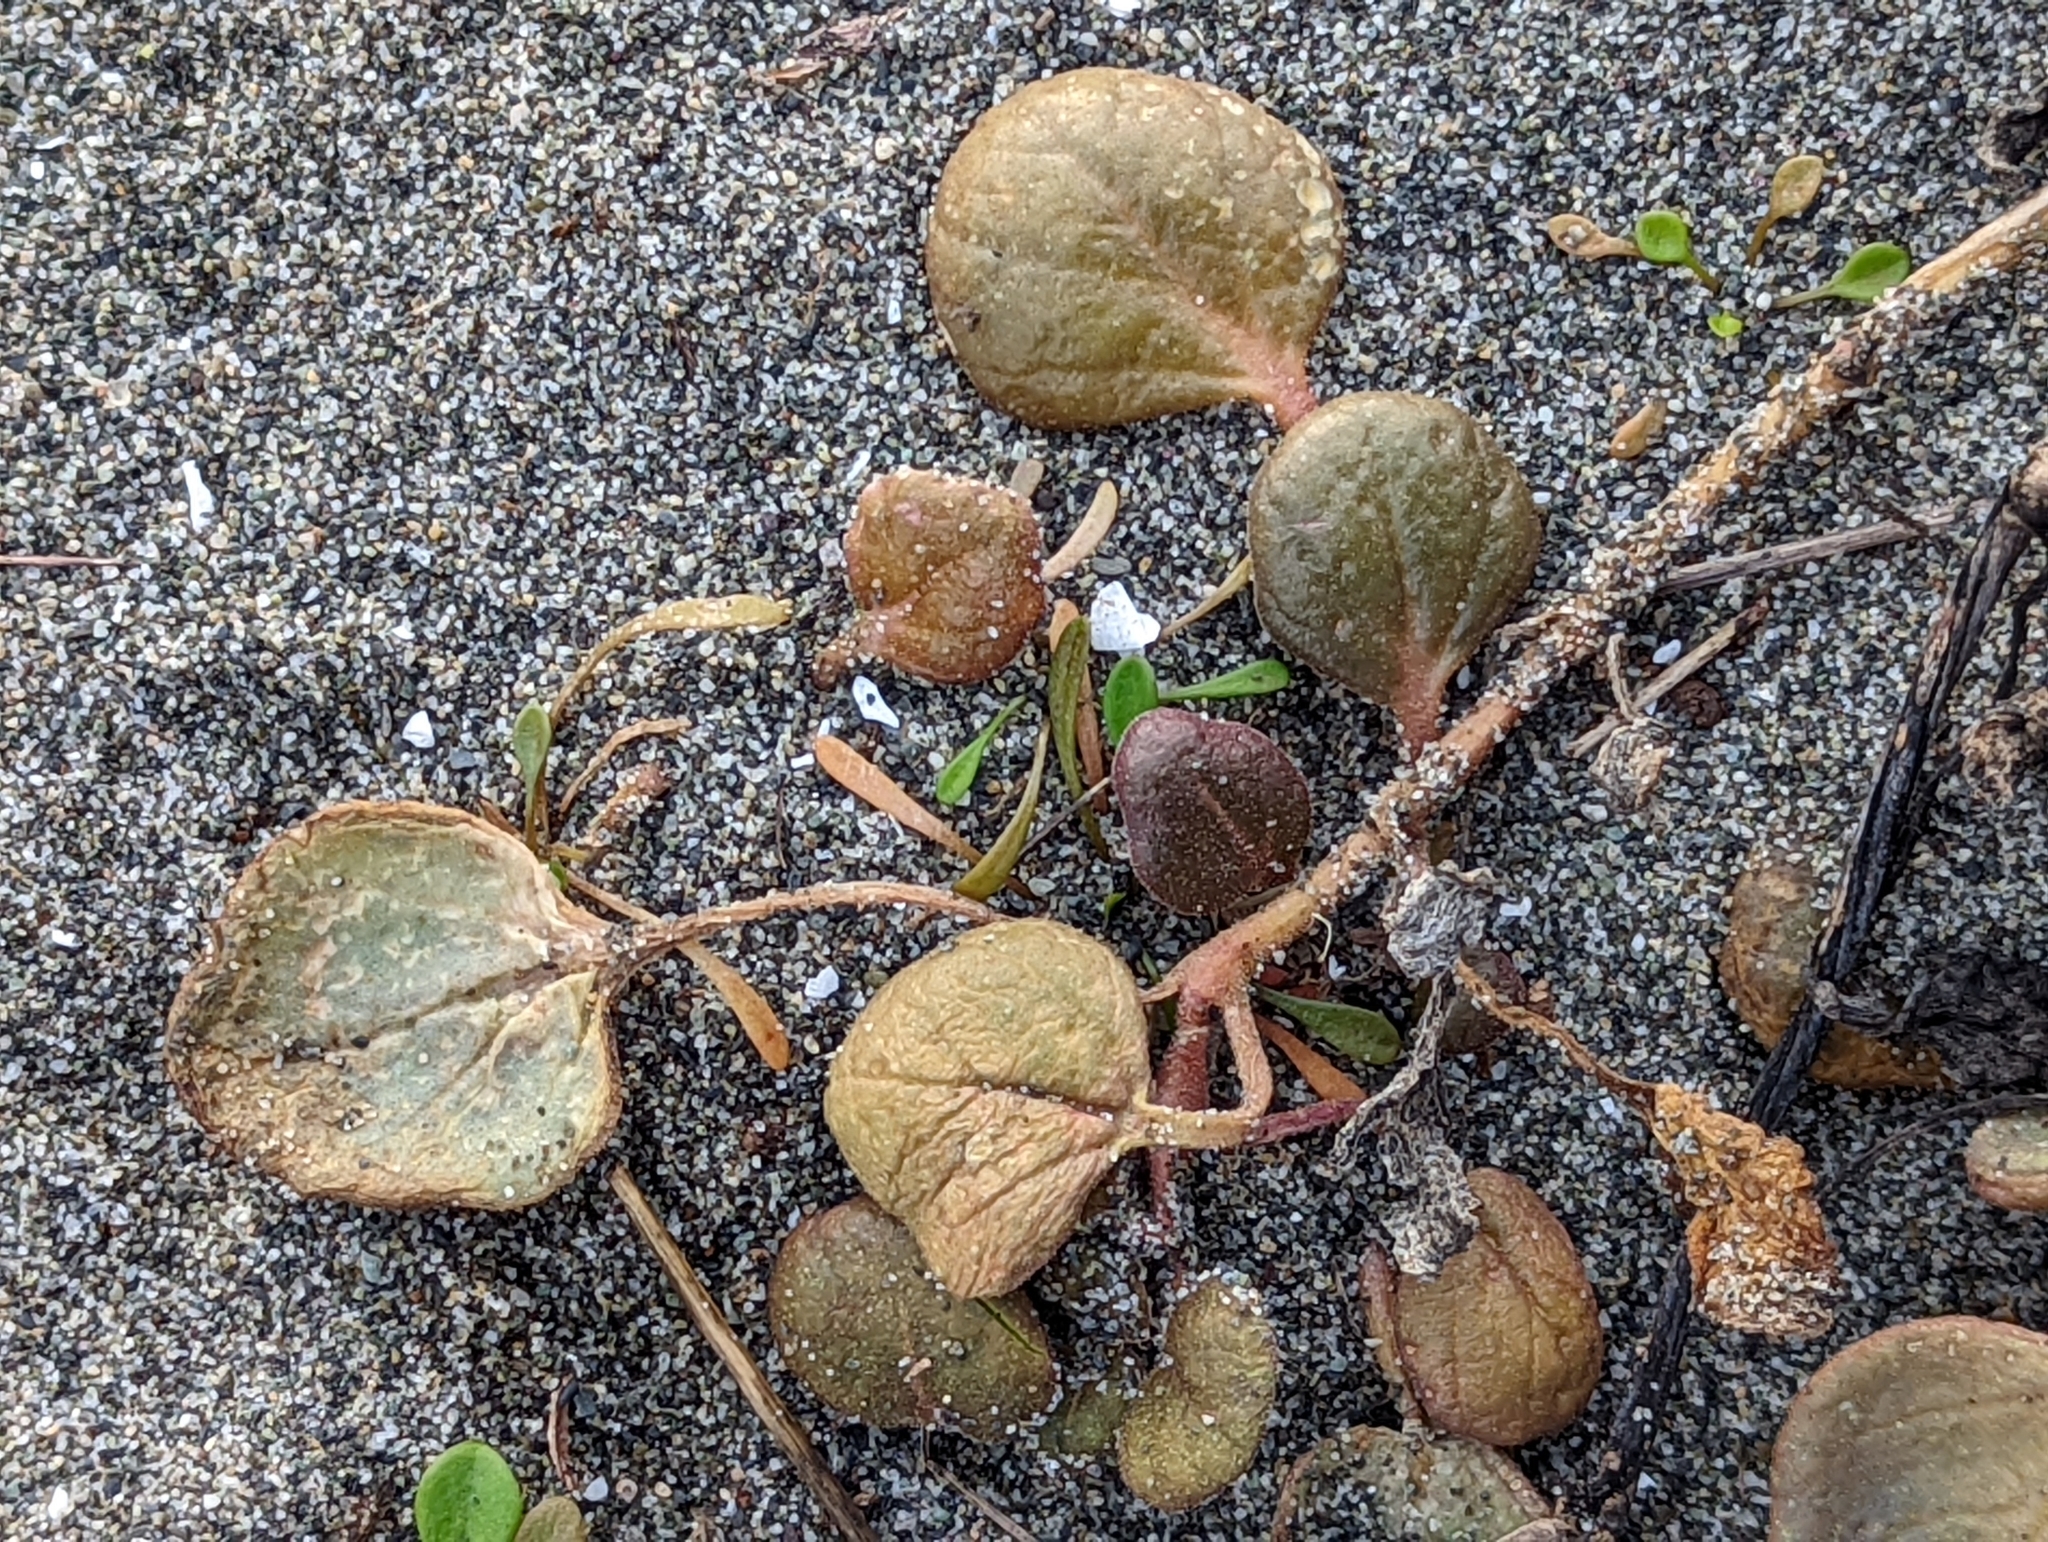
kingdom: Plantae
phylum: Tracheophyta
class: Magnoliopsida
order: Caryophyllales
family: Nyctaginaceae
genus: Abronia
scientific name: Abronia latifolia
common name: Yellow sand-verbena
